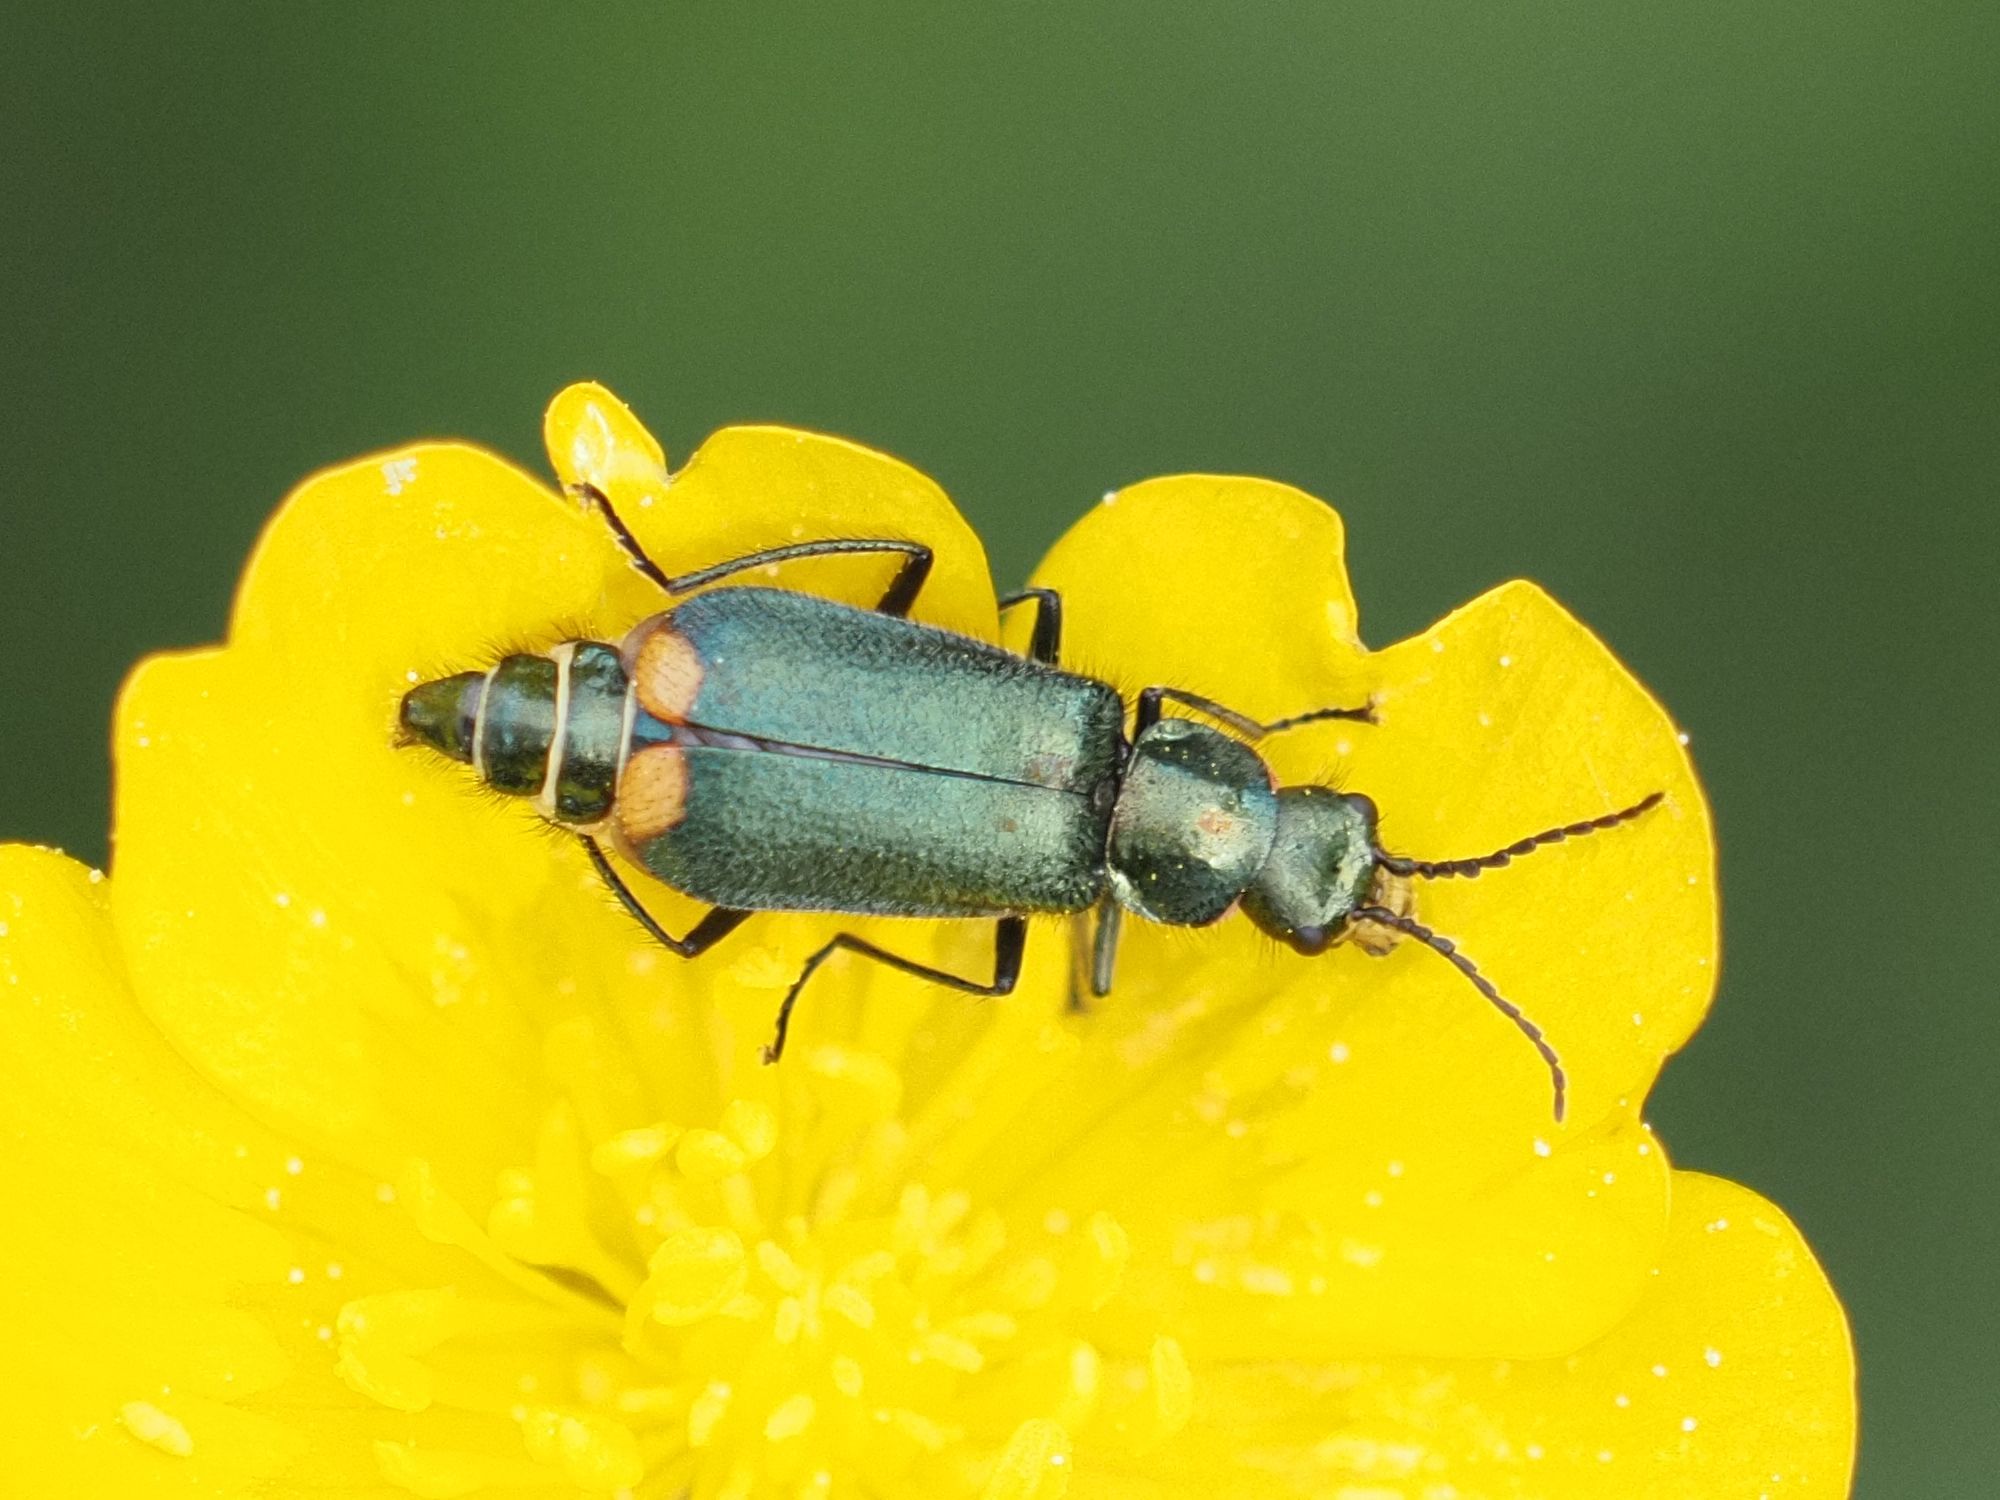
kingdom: Animalia
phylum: Arthropoda
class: Insecta
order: Coleoptera
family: Melyridae
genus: Malachius
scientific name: Malachius bipustulatus
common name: Malachite beetle
